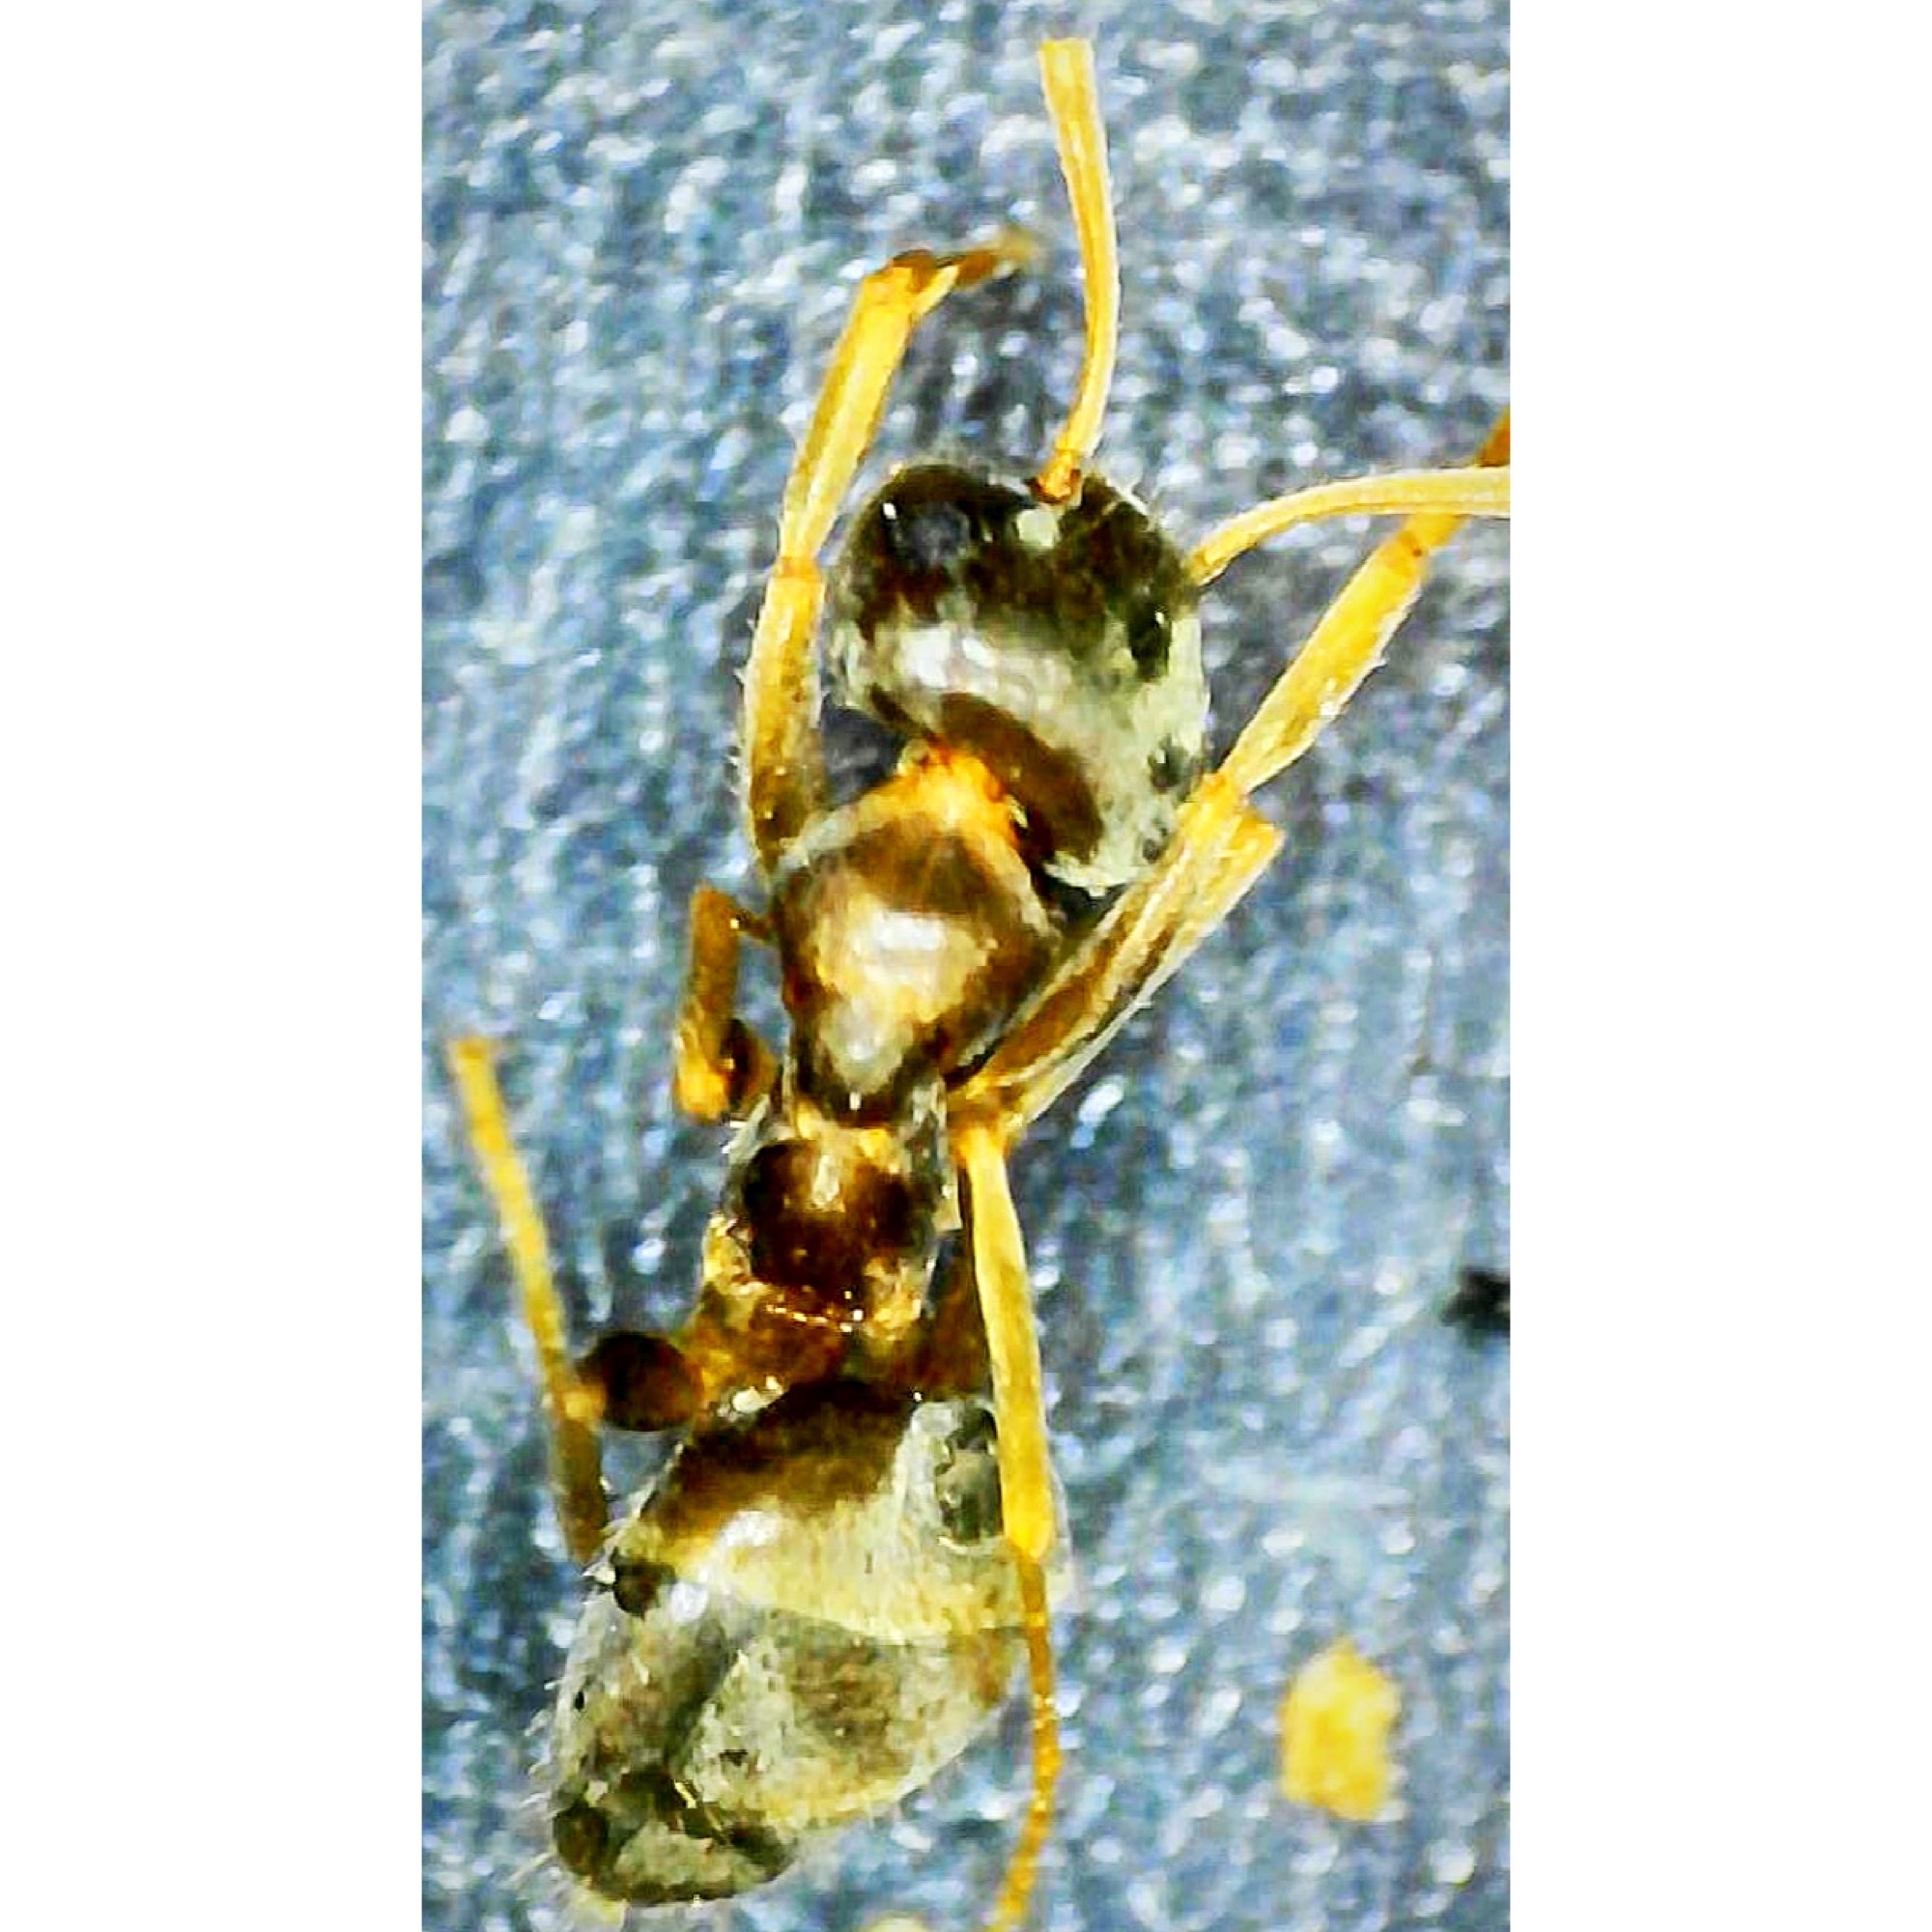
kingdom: Animalia
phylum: Arthropoda
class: Insecta
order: Hymenoptera
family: Formicidae
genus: Lasius
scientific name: Lasius neoniger
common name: Turfgrass ant
